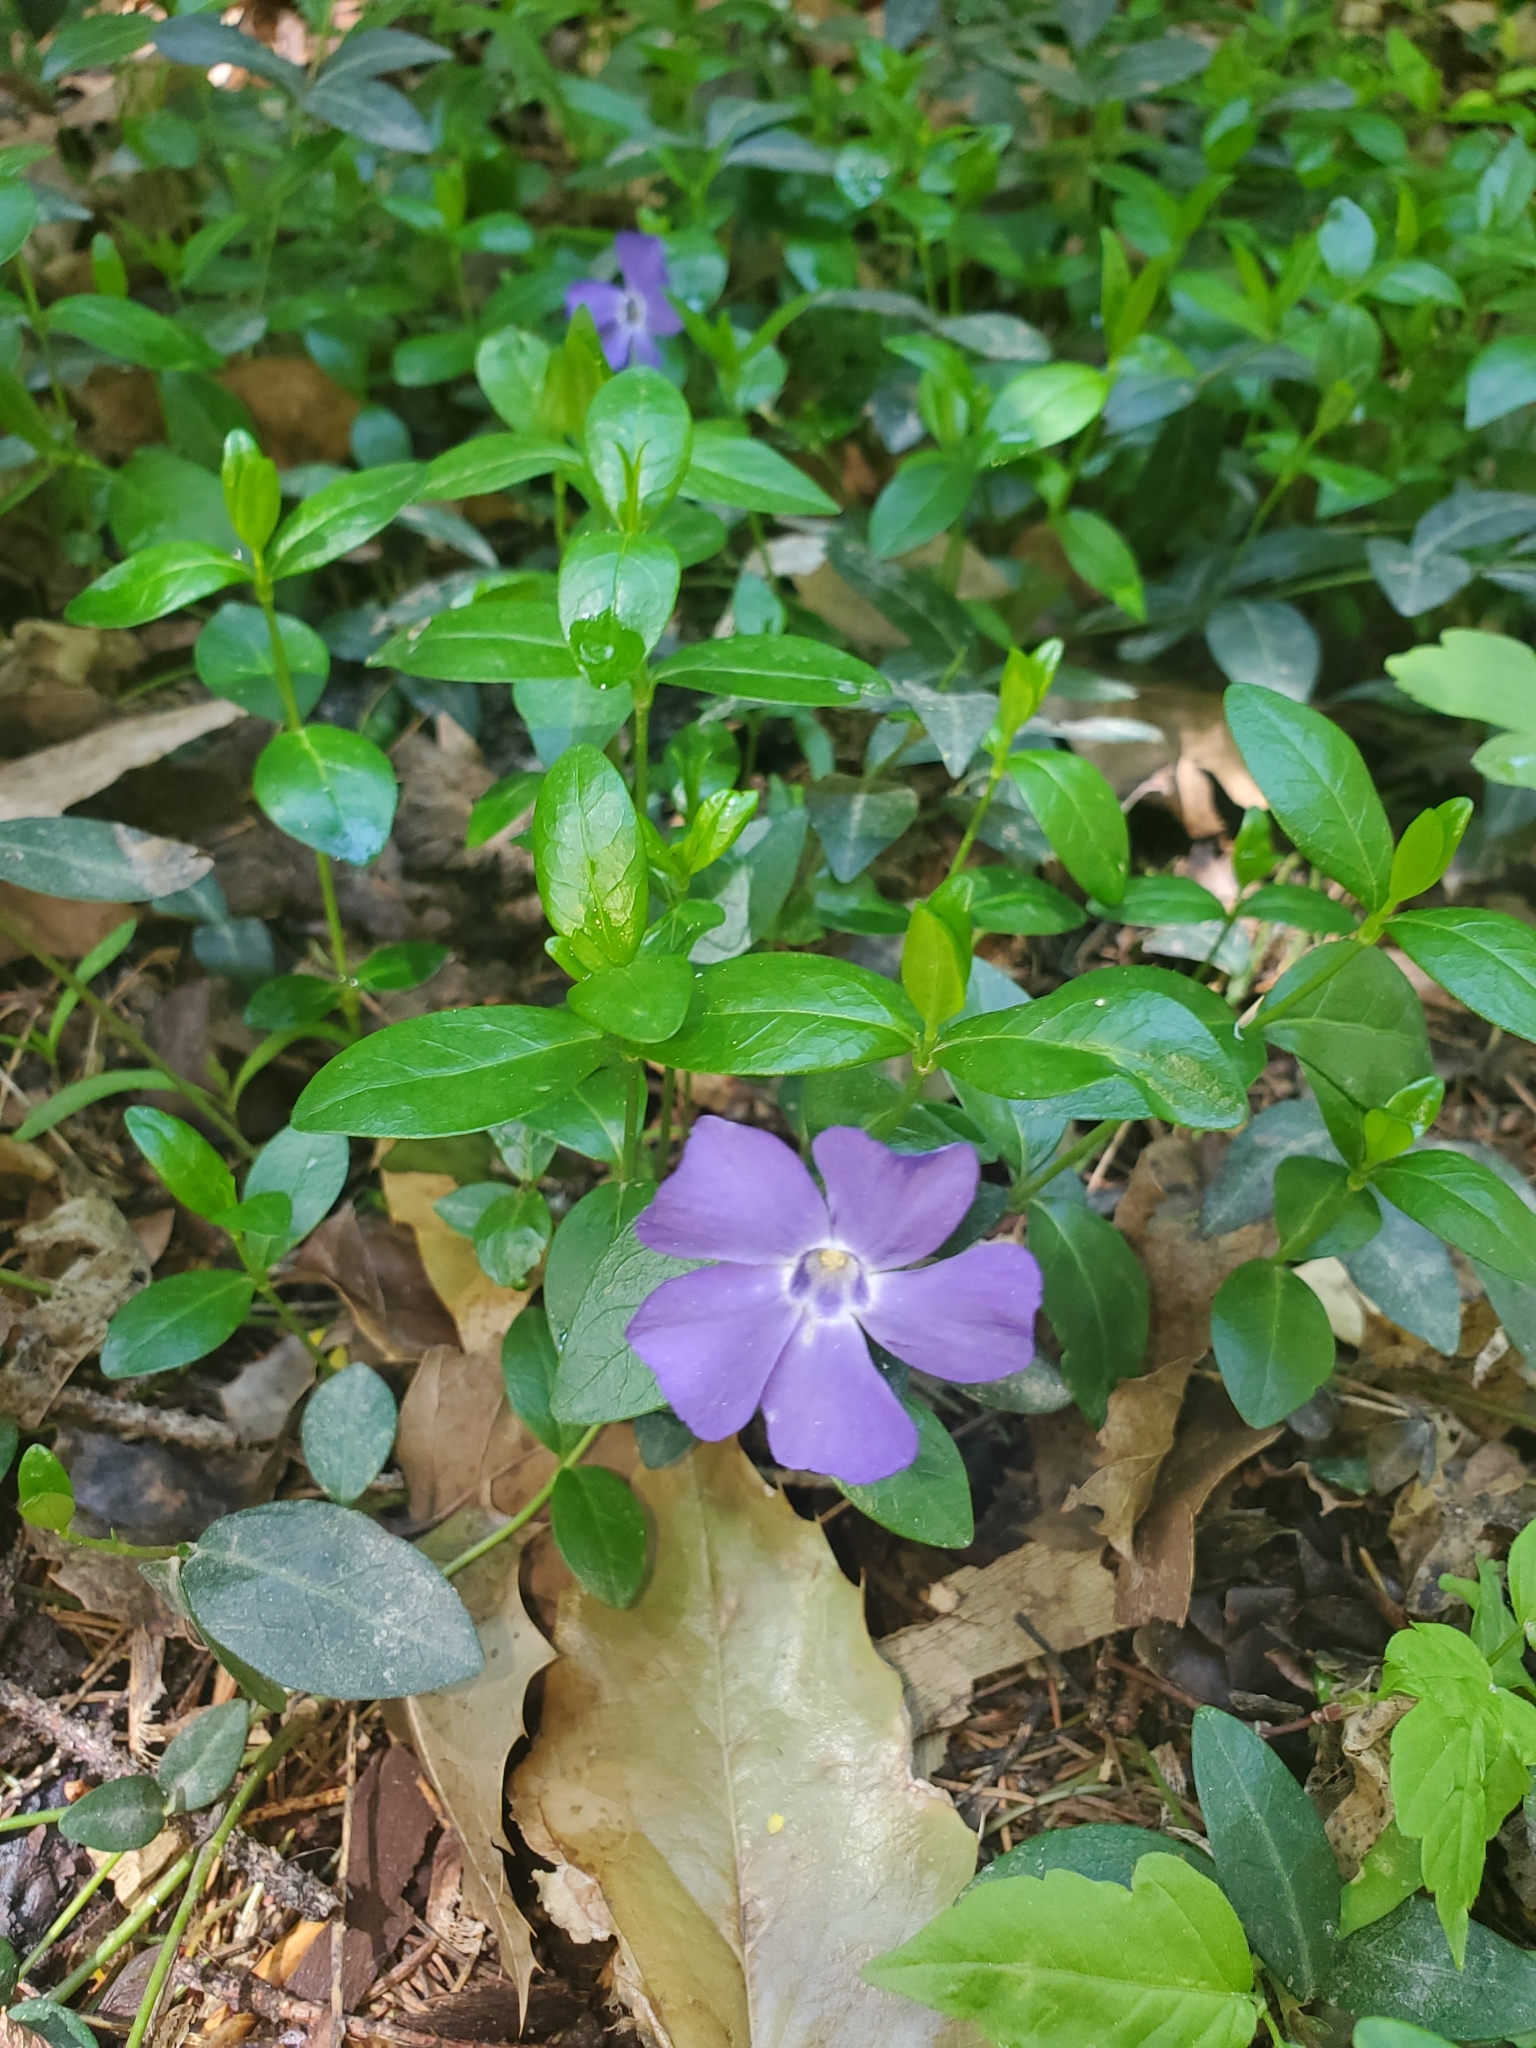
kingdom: Plantae
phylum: Tracheophyta
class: Magnoliopsida
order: Gentianales
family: Apocynaceae
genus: Vinca
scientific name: Vinca minor
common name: Lesser periwinkle
